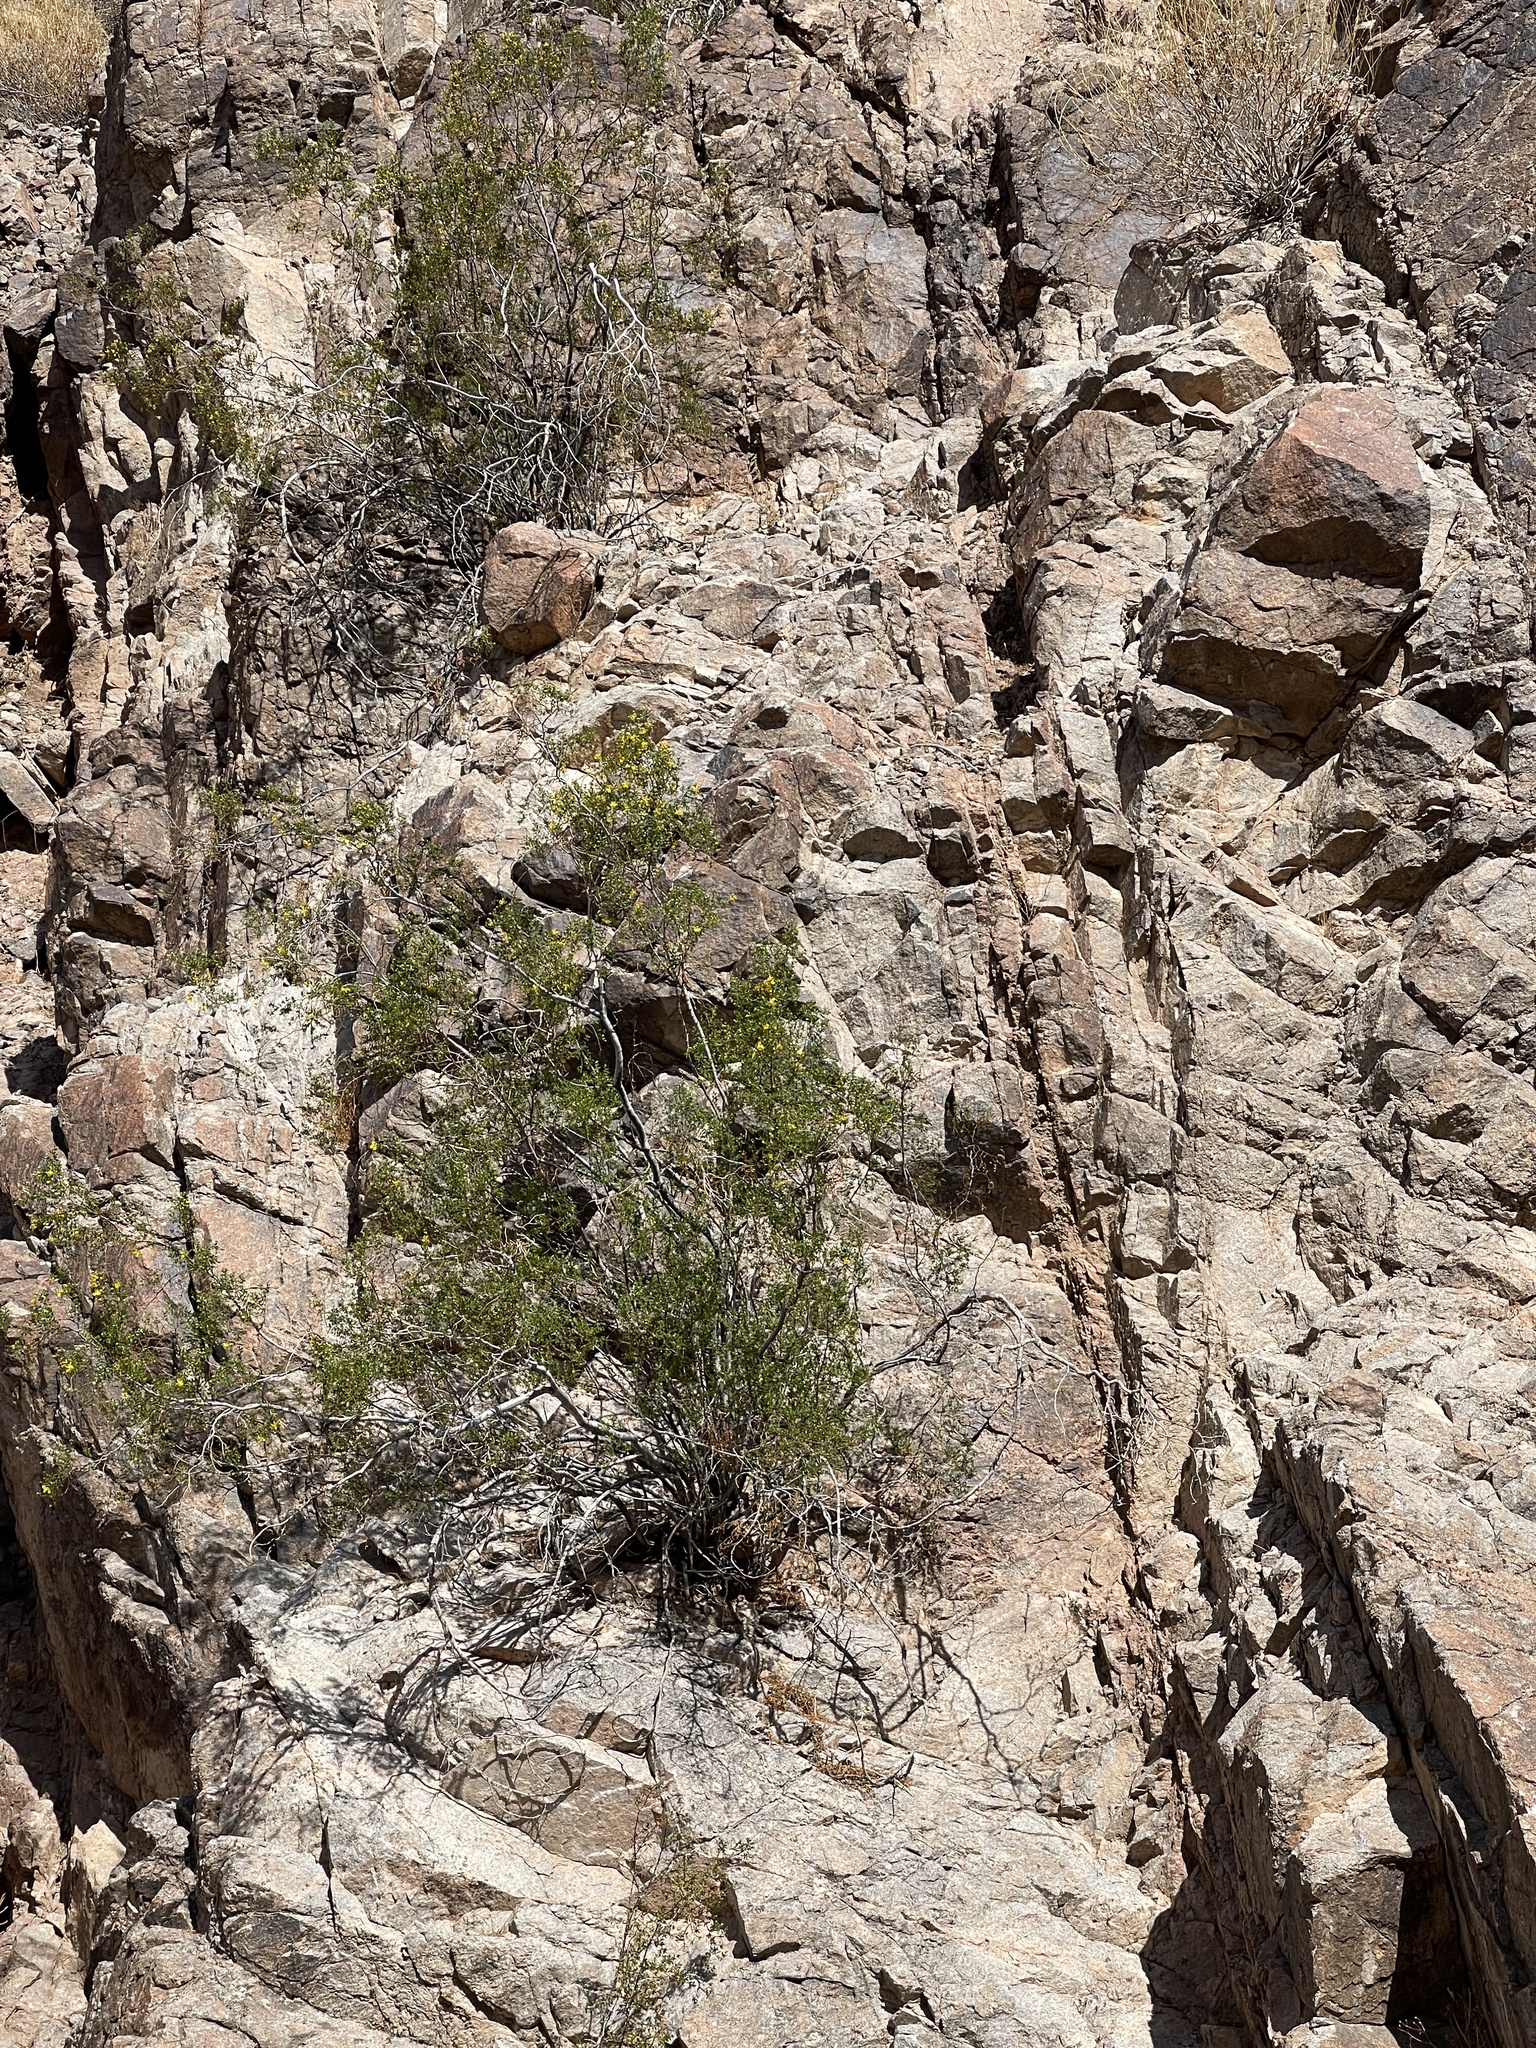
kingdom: Plantae
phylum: Tracheophyta
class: Magnoliopsida
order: Zygophyllales
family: Zygophyllaceae
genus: Larrea
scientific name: Larrea tridentata
